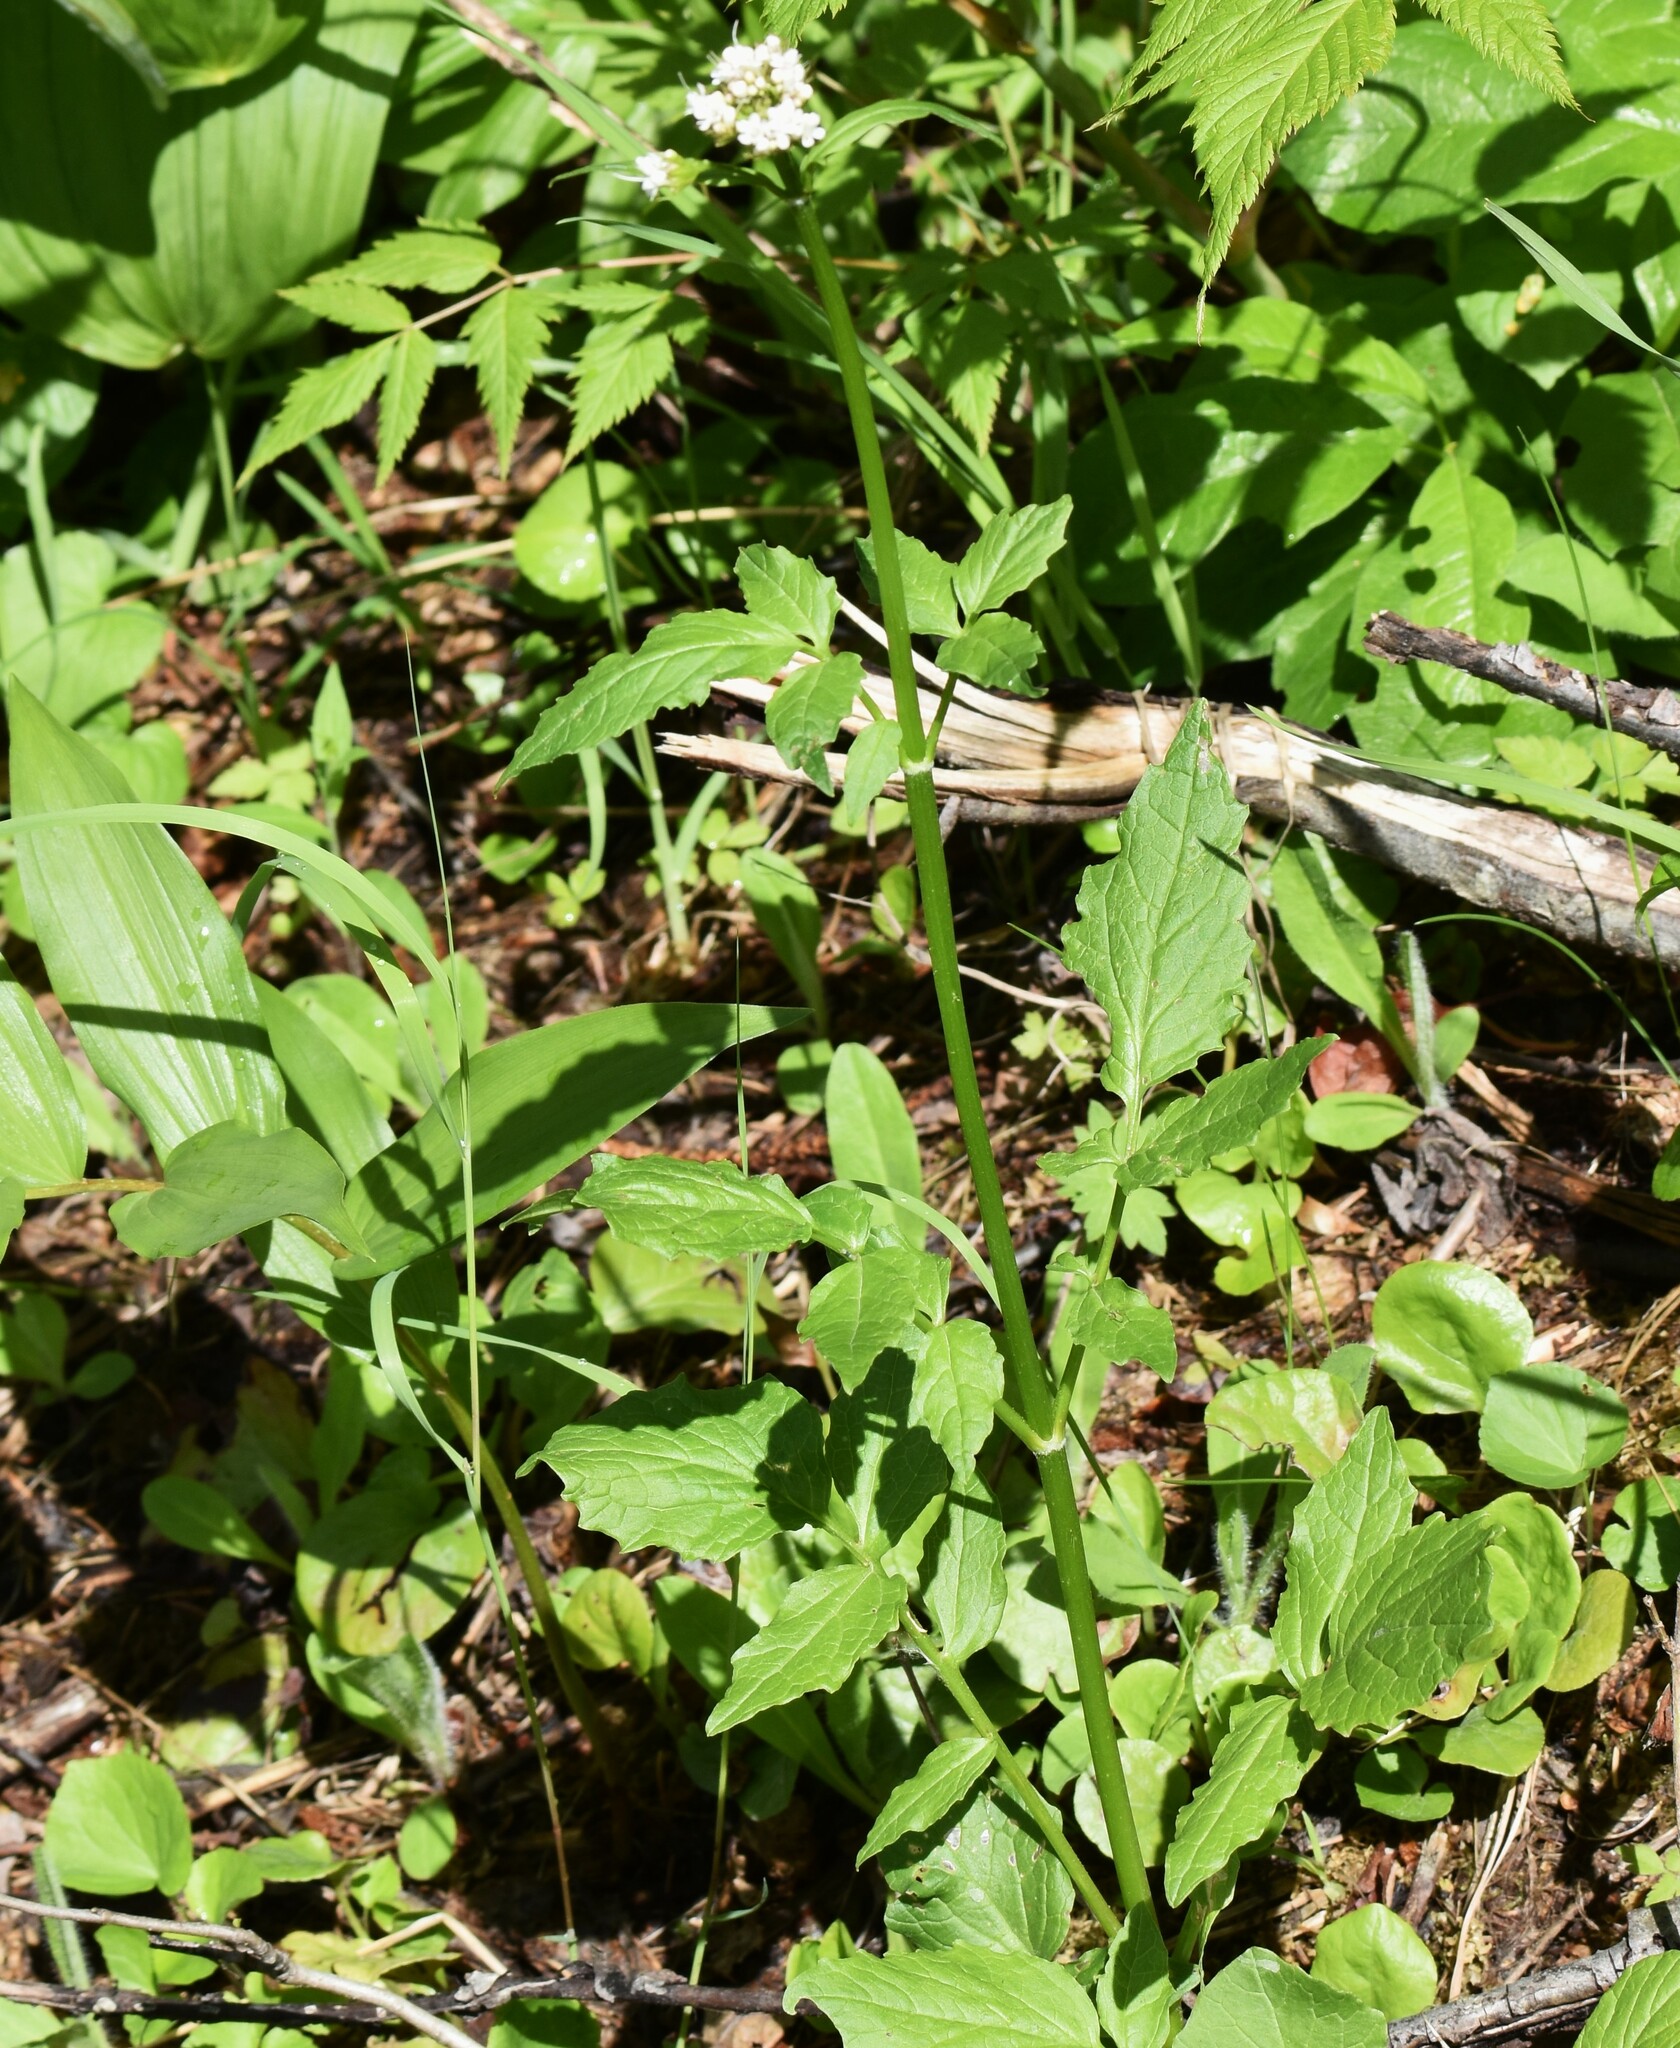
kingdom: Plantae
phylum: Tracheophyta
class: Magnoliopsida
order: Dipsacales
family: Caprifoliaceae
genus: Valeriana
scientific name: Valeriana sitchensis
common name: Pacific valerian
